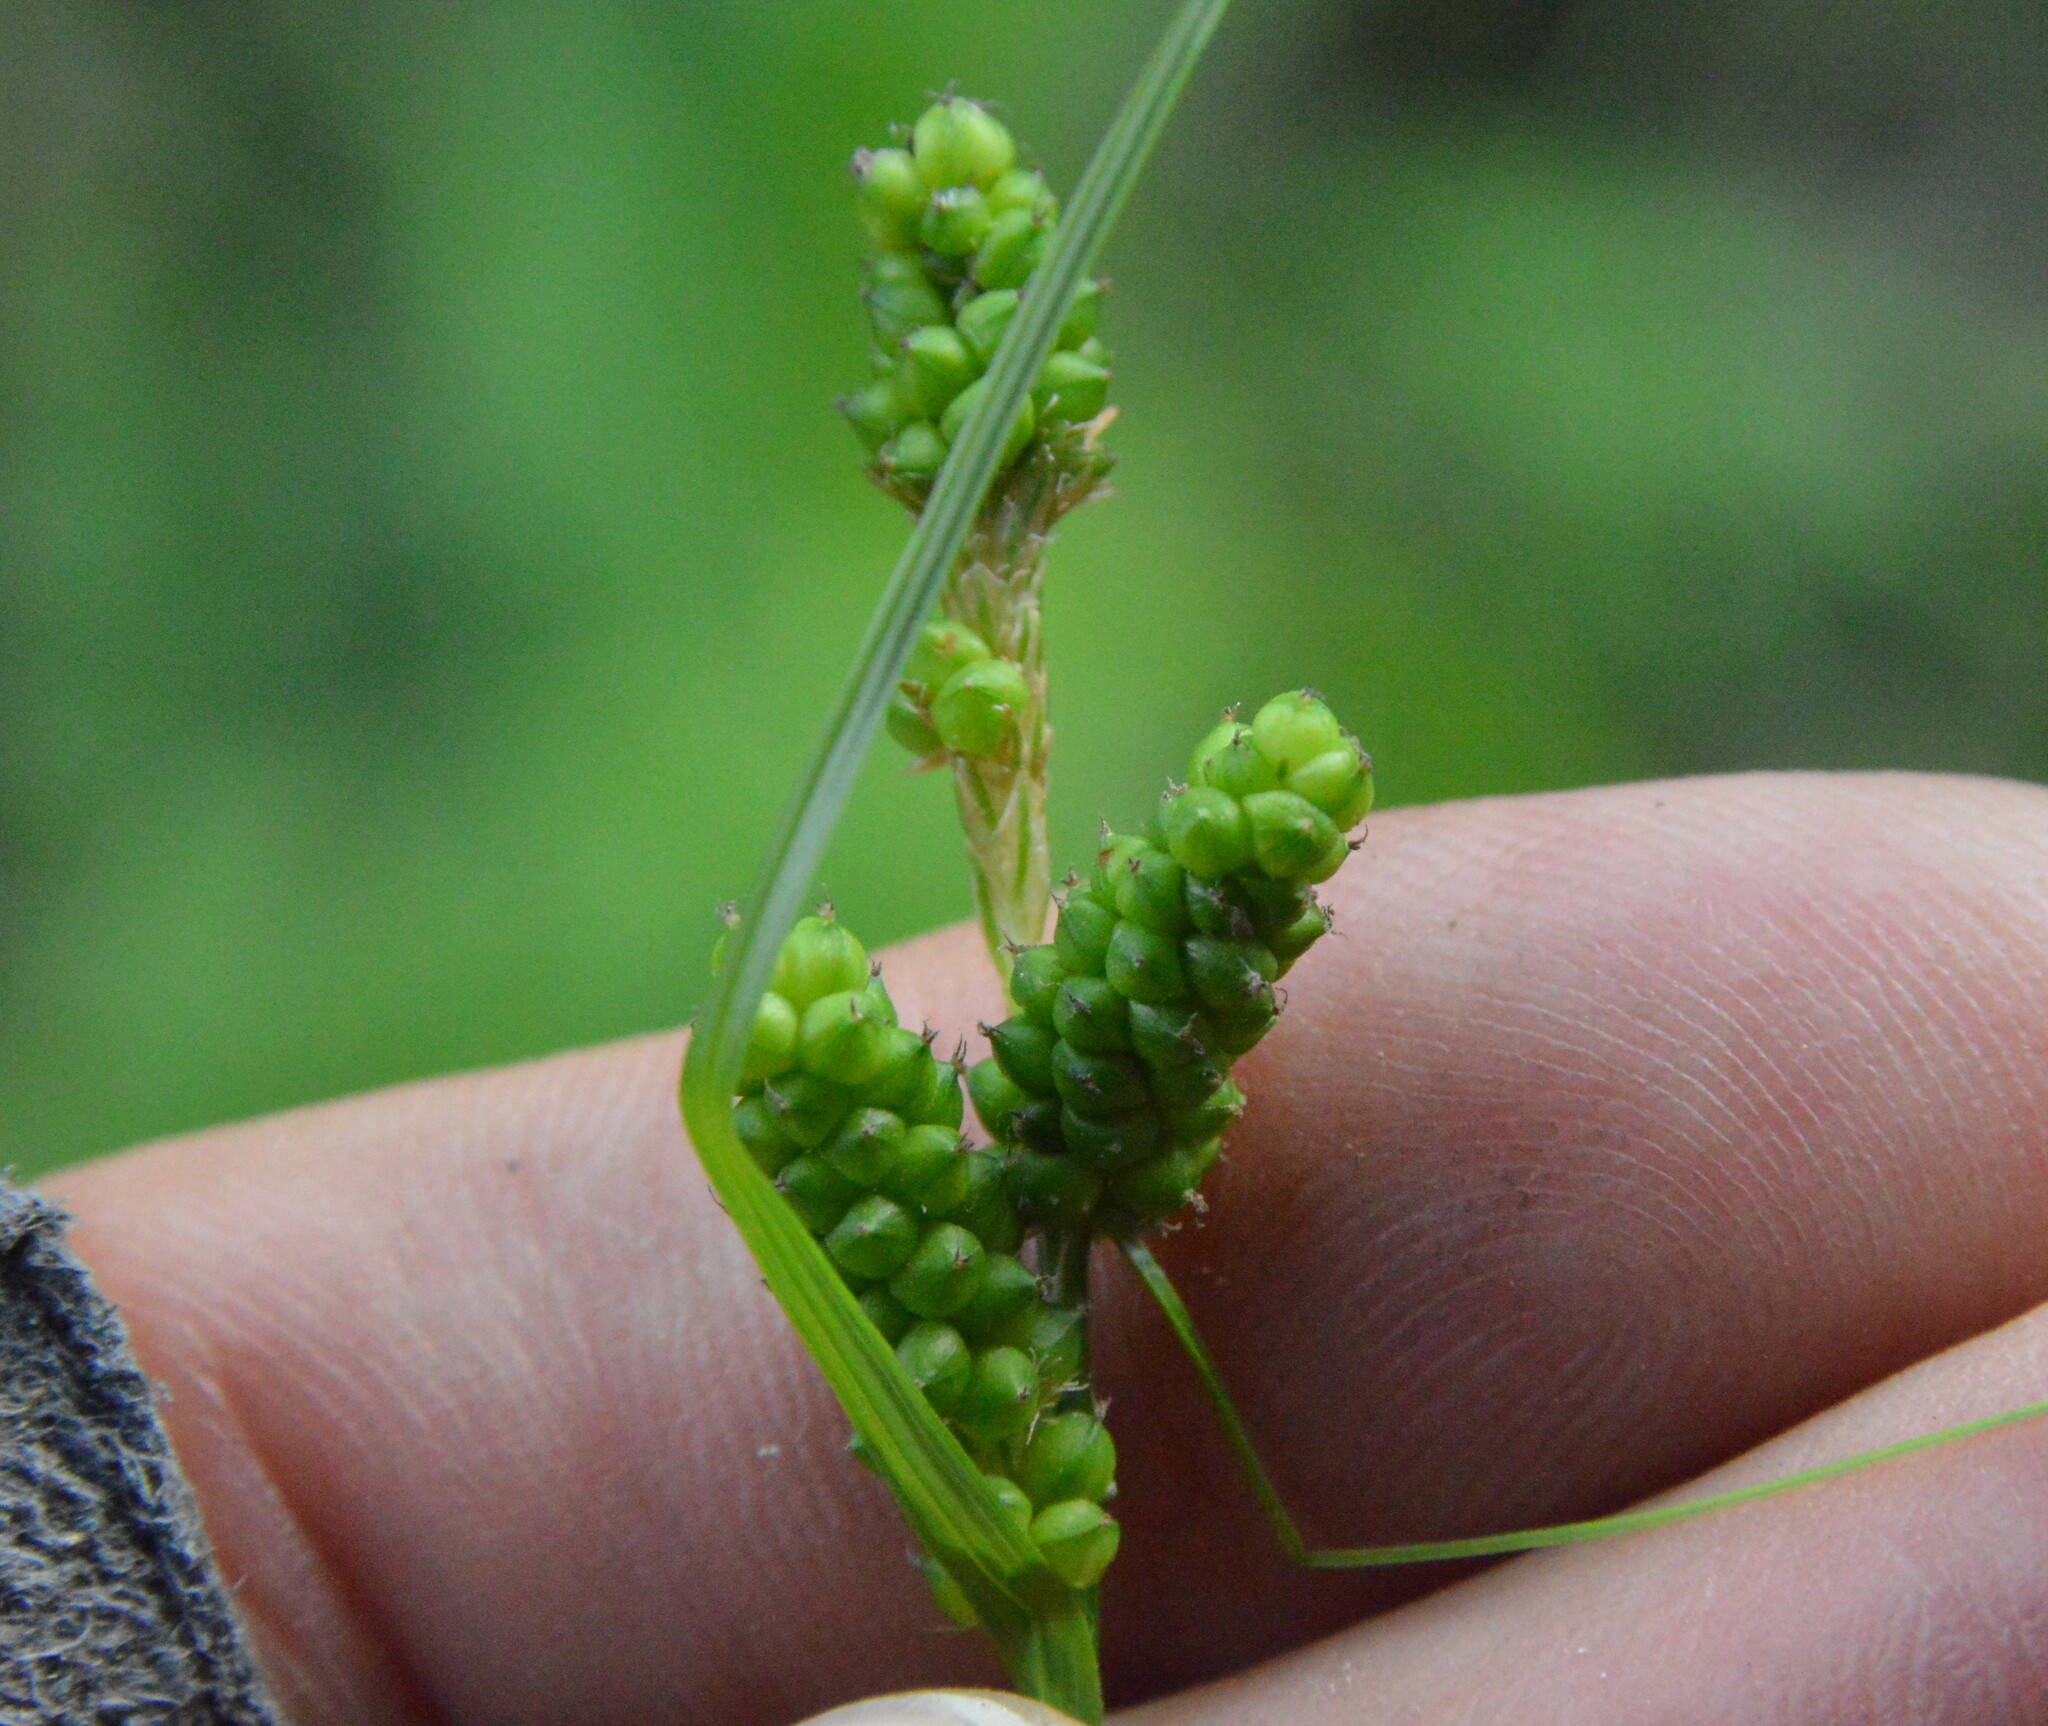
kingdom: Plantae
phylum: Tracheophyta
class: Liliopsida
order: Poales
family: Cyperaceae
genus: Carex
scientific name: Carex caroliniana
